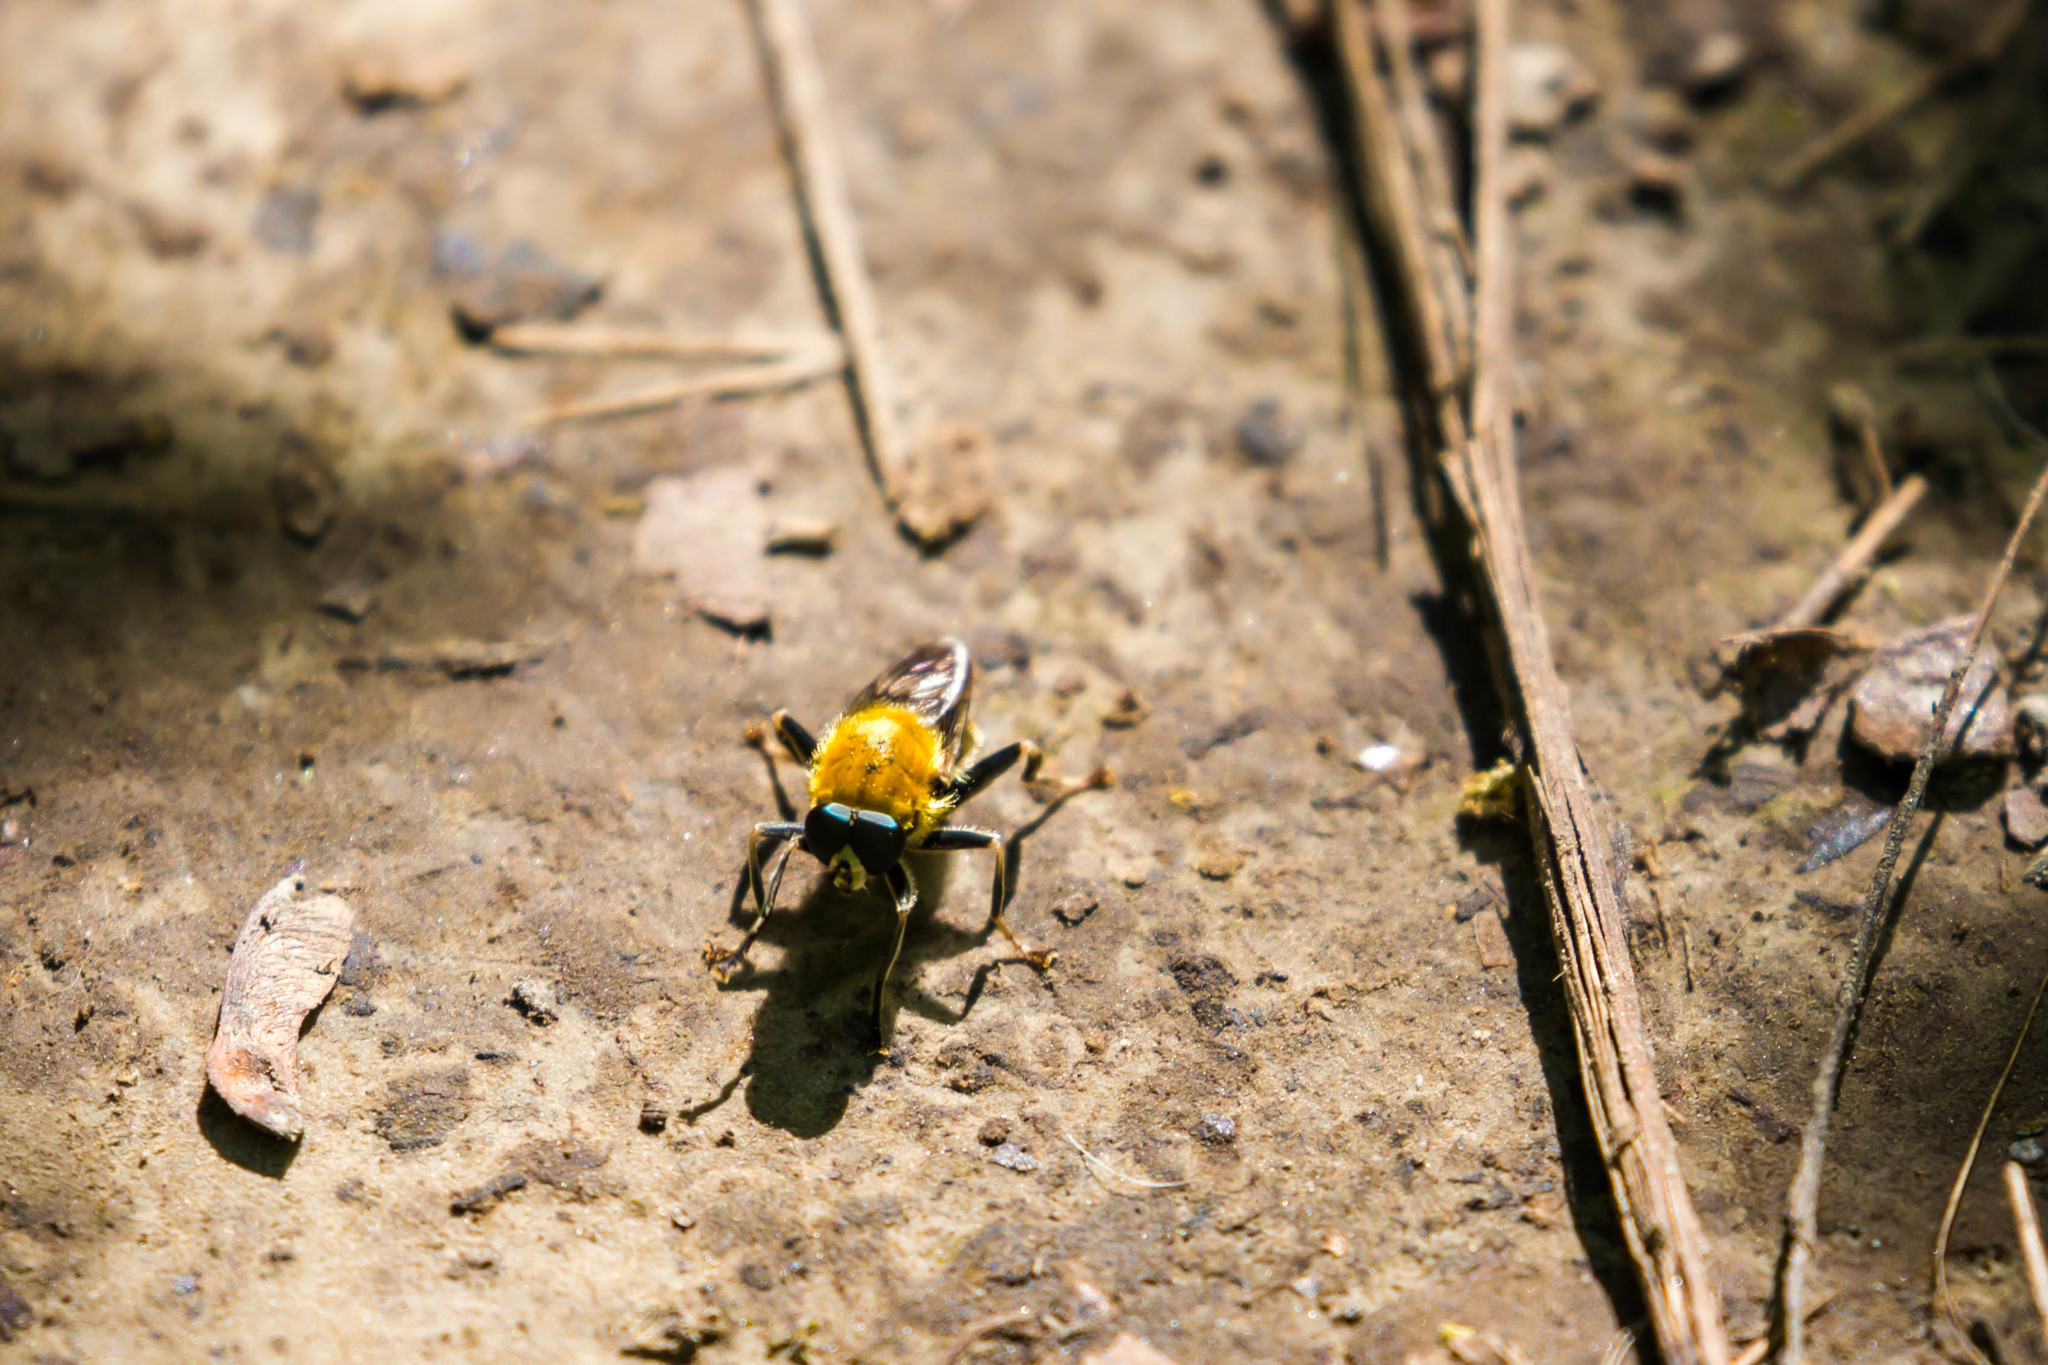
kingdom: Animalia
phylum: Arthropoda
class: Insecta
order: Diptera
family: Syrphidae
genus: Pterallastes
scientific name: Pterallastes thoracicus
